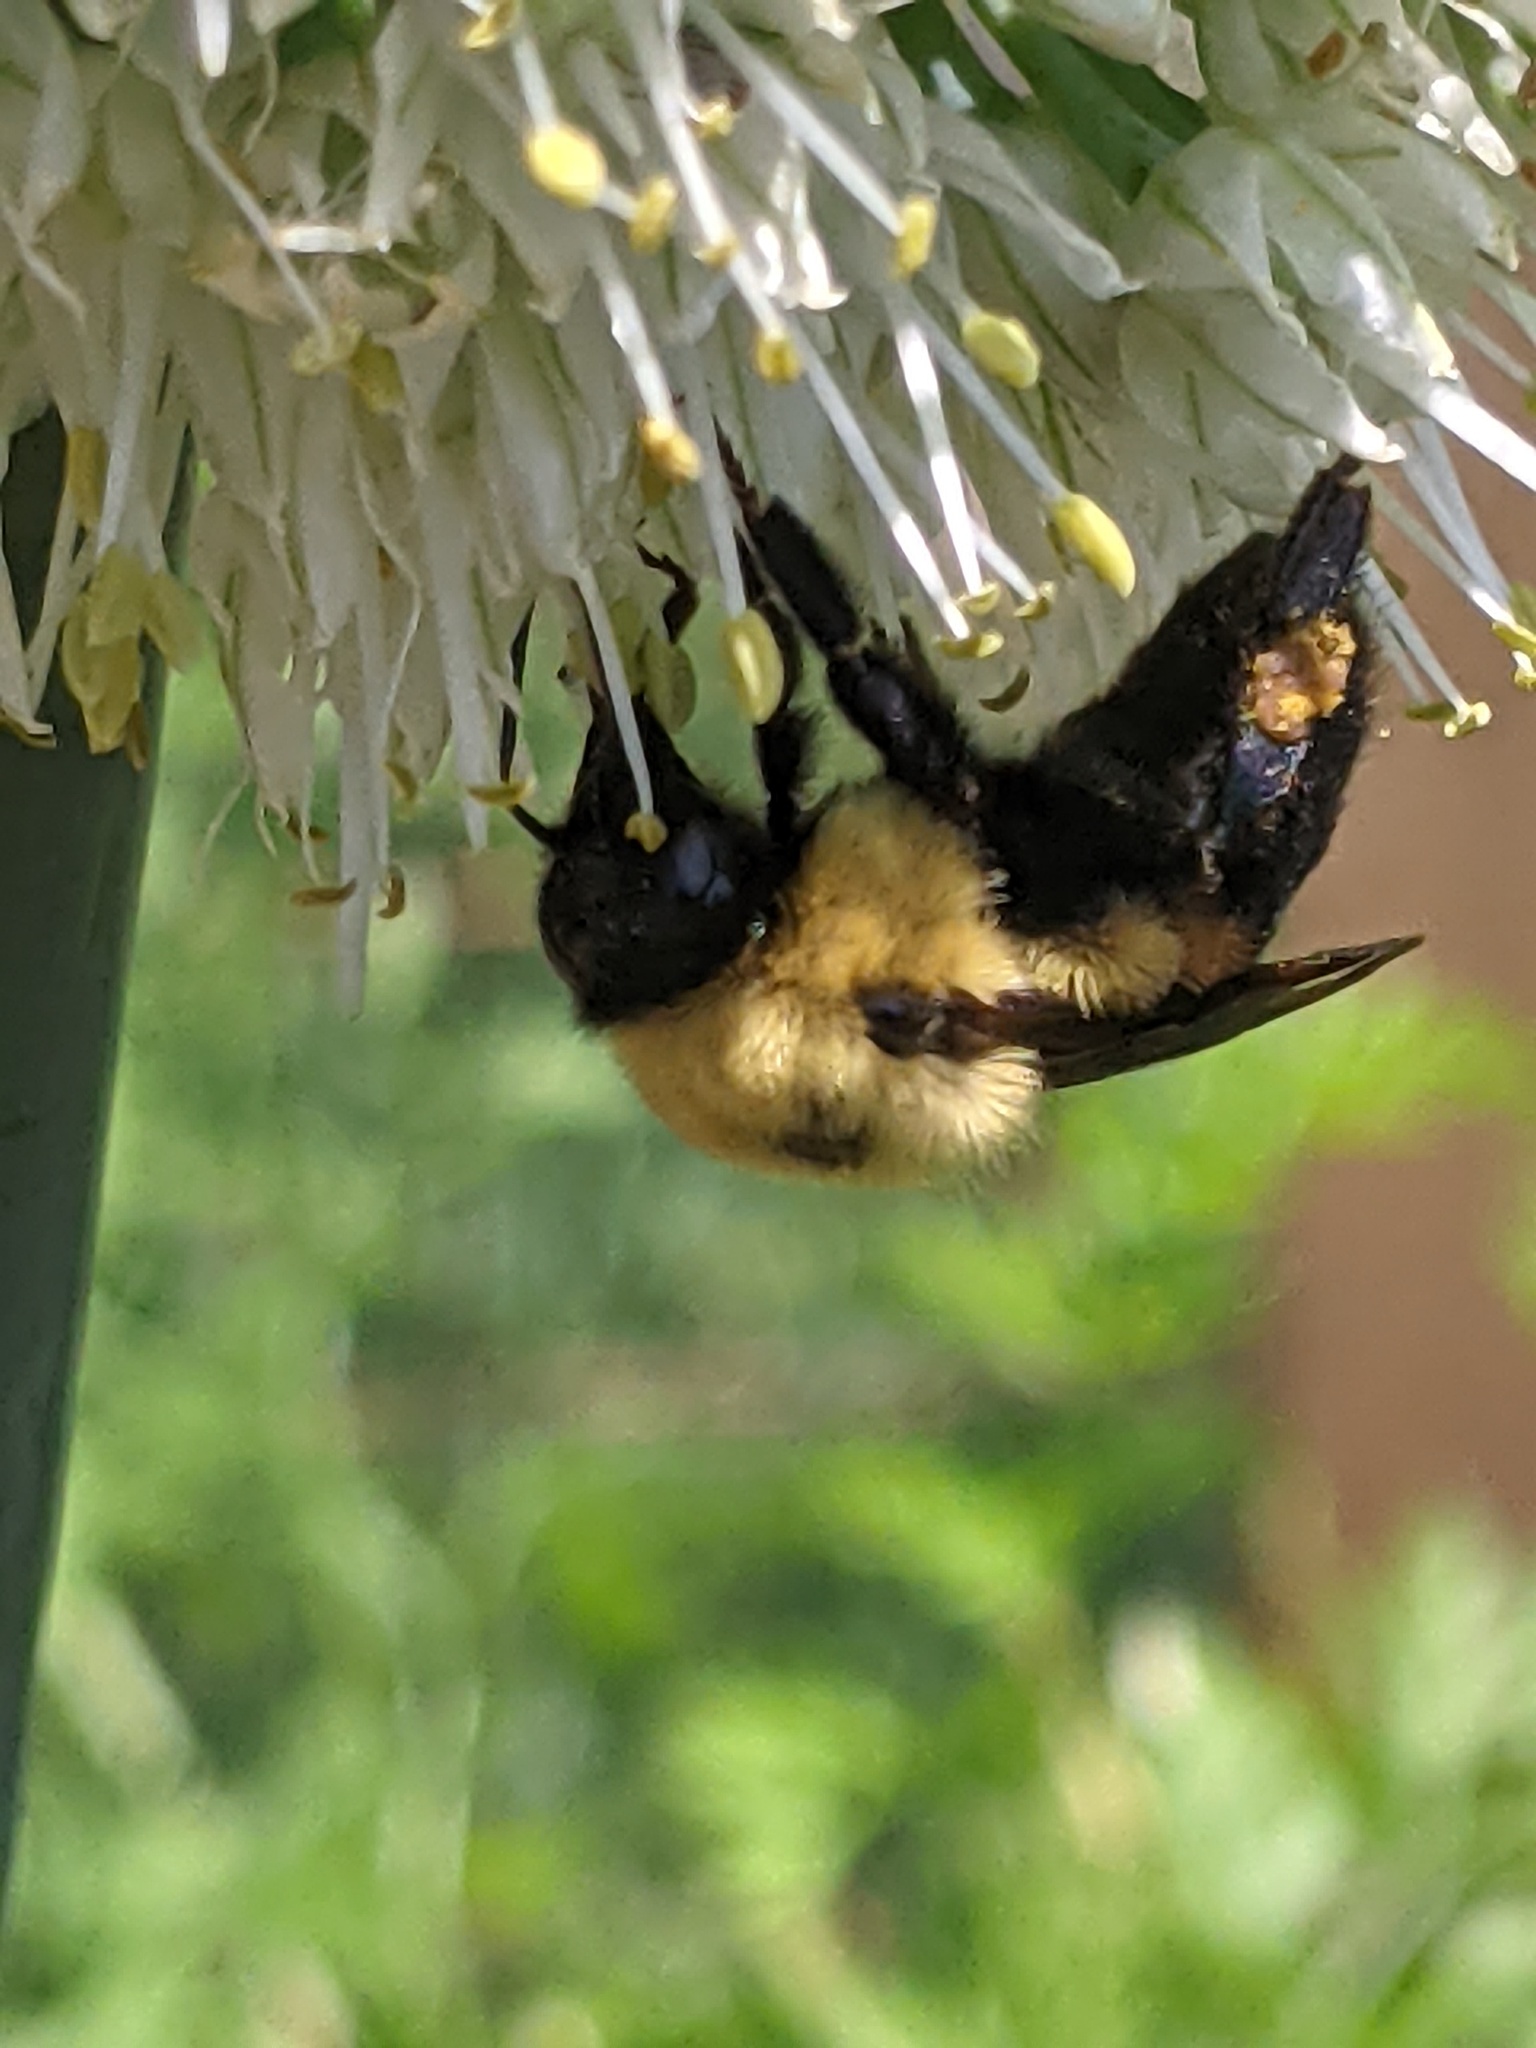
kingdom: Animalia
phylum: Arthropoda
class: Insecta
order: Hymenoptera
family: Apidae
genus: Bombus
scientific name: Bombus griseocollis
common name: Brown-belted bumble bee
